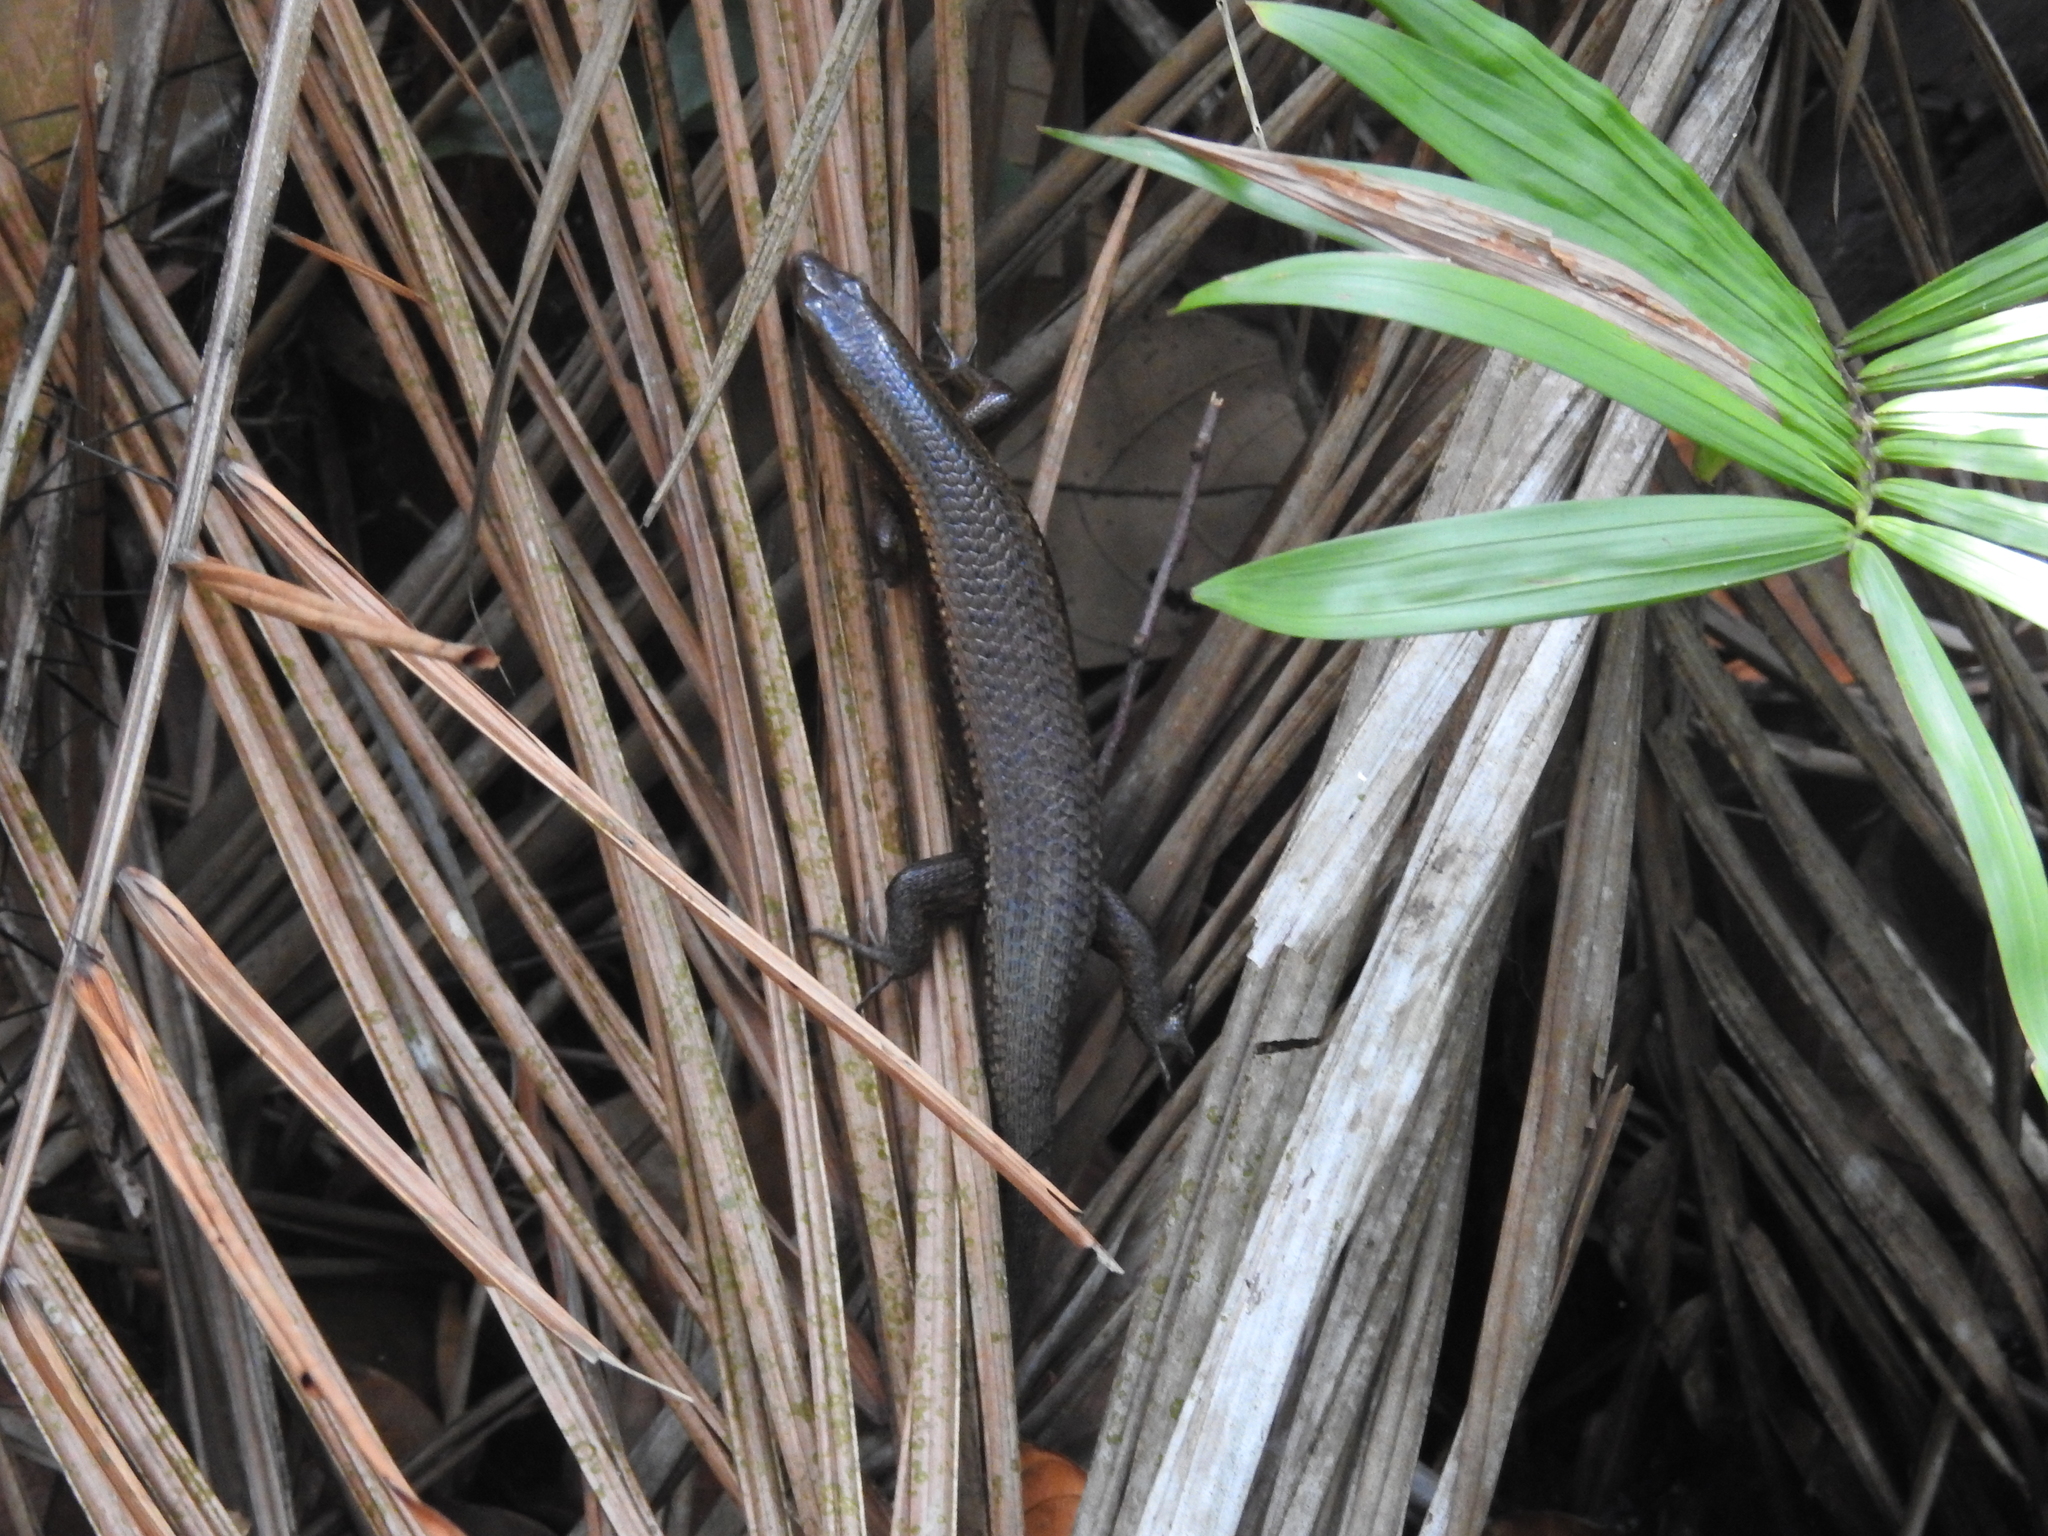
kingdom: Animalia
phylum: Chordata
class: Squamata
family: Scincidae
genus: Eutropis
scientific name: Eutropis multifasciata
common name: Common mabuya
